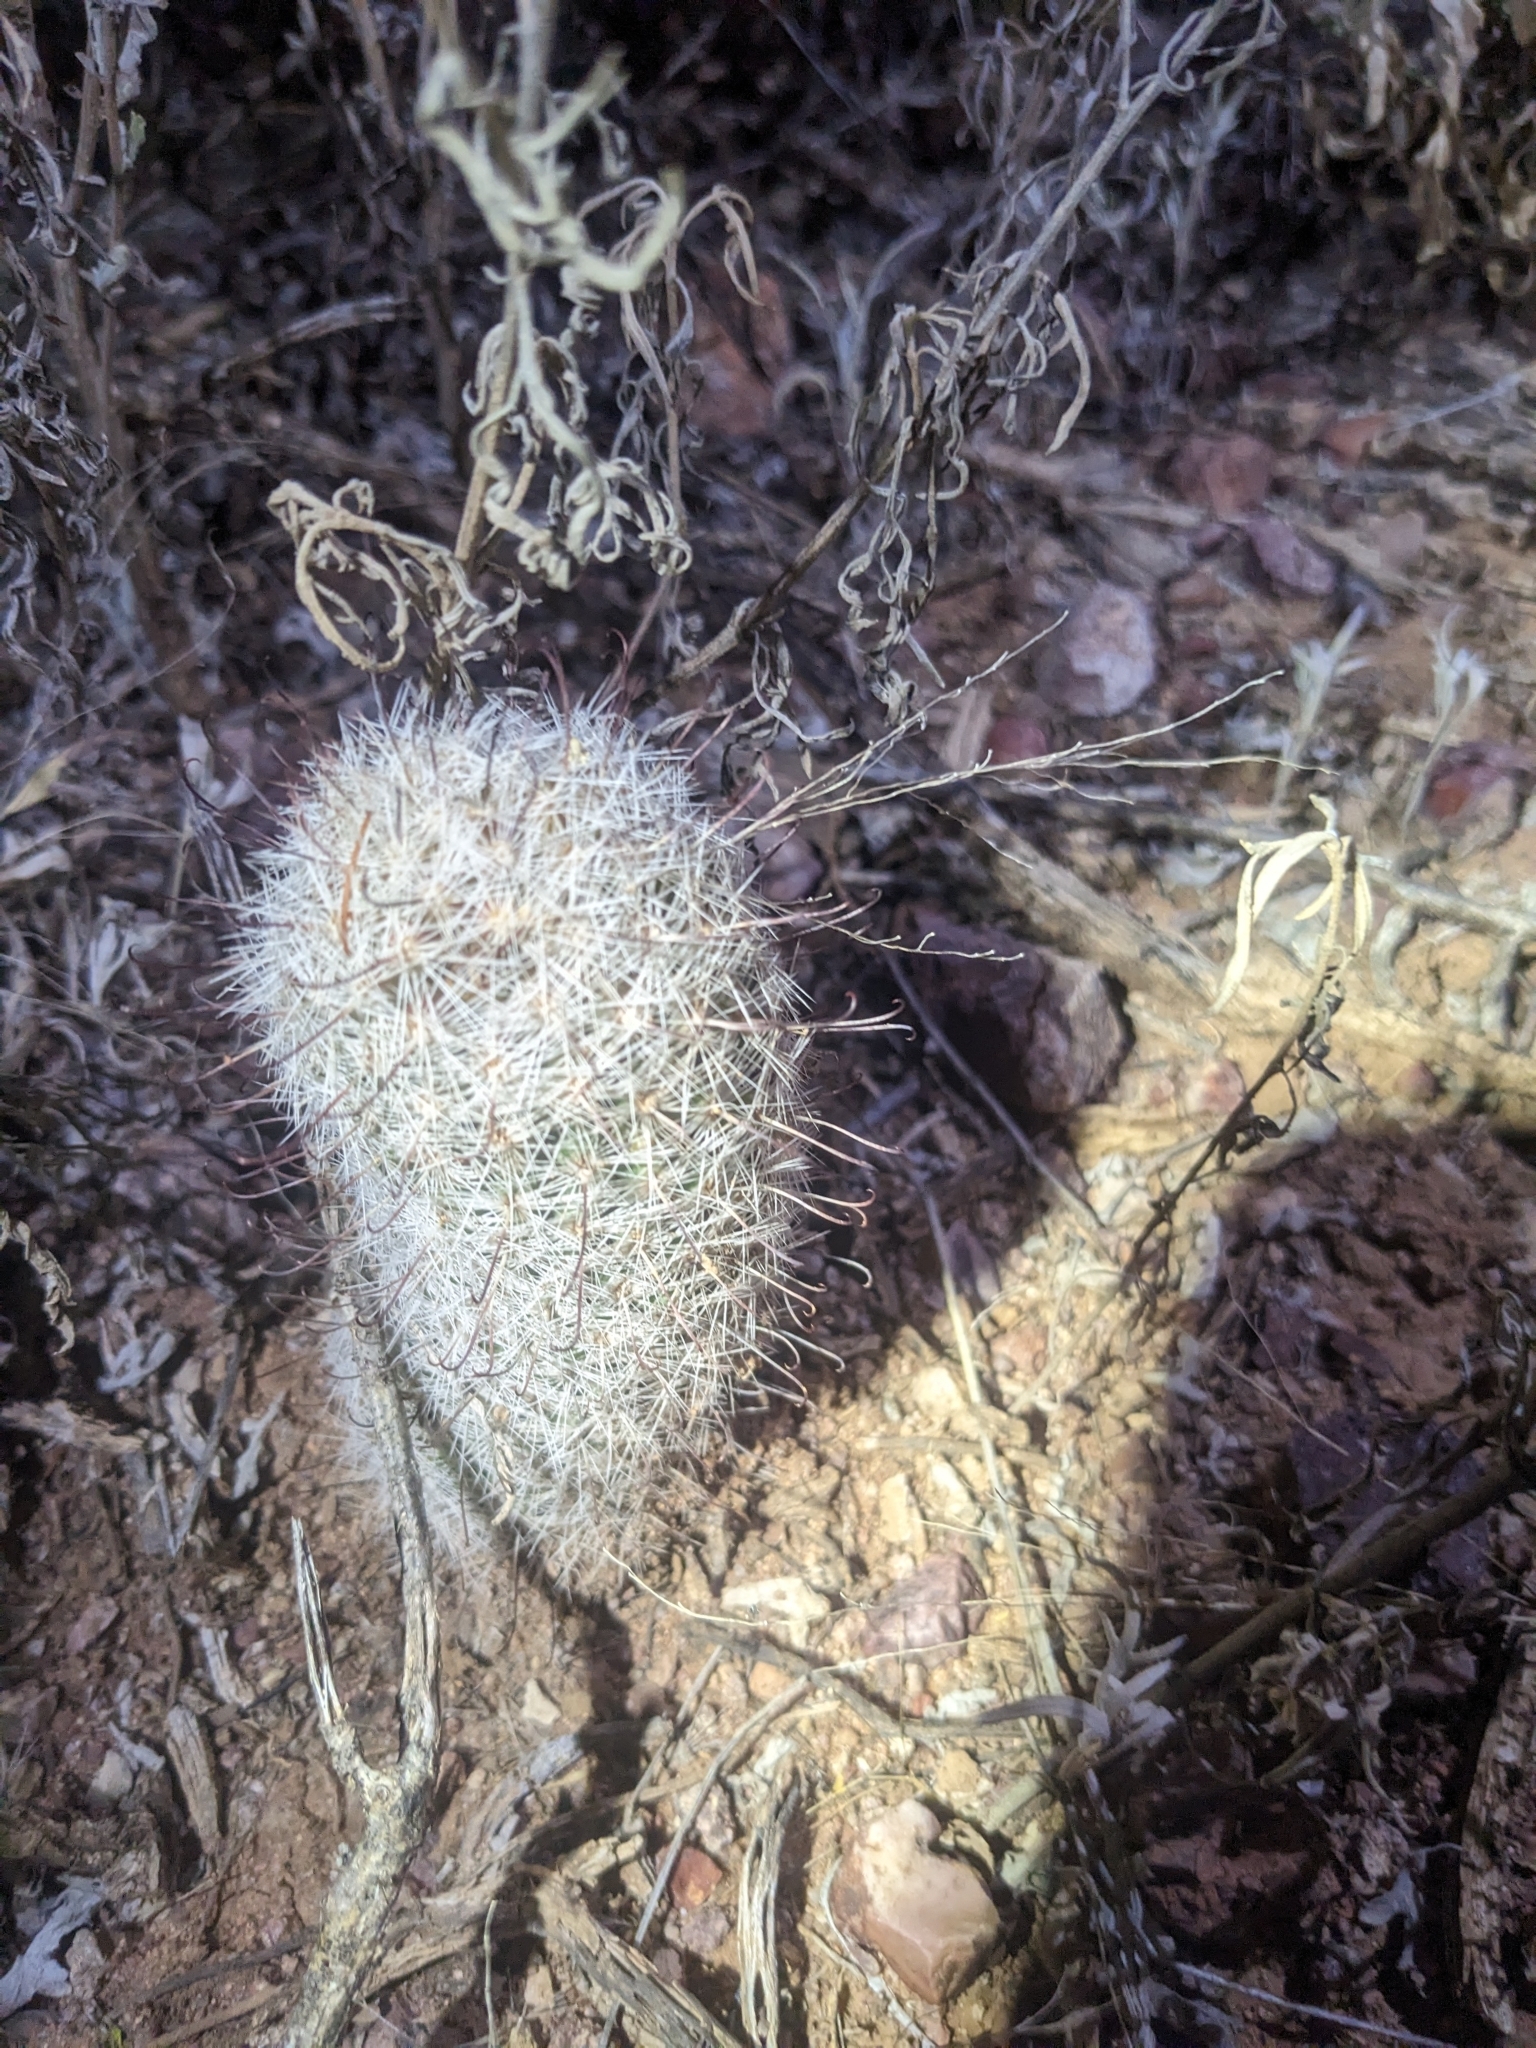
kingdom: Plantae
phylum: Tracheophyta
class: Magnoliopsida
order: Caryophyllales
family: Cactaceae
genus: Cochemiea
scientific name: Cochemiea grahamii
